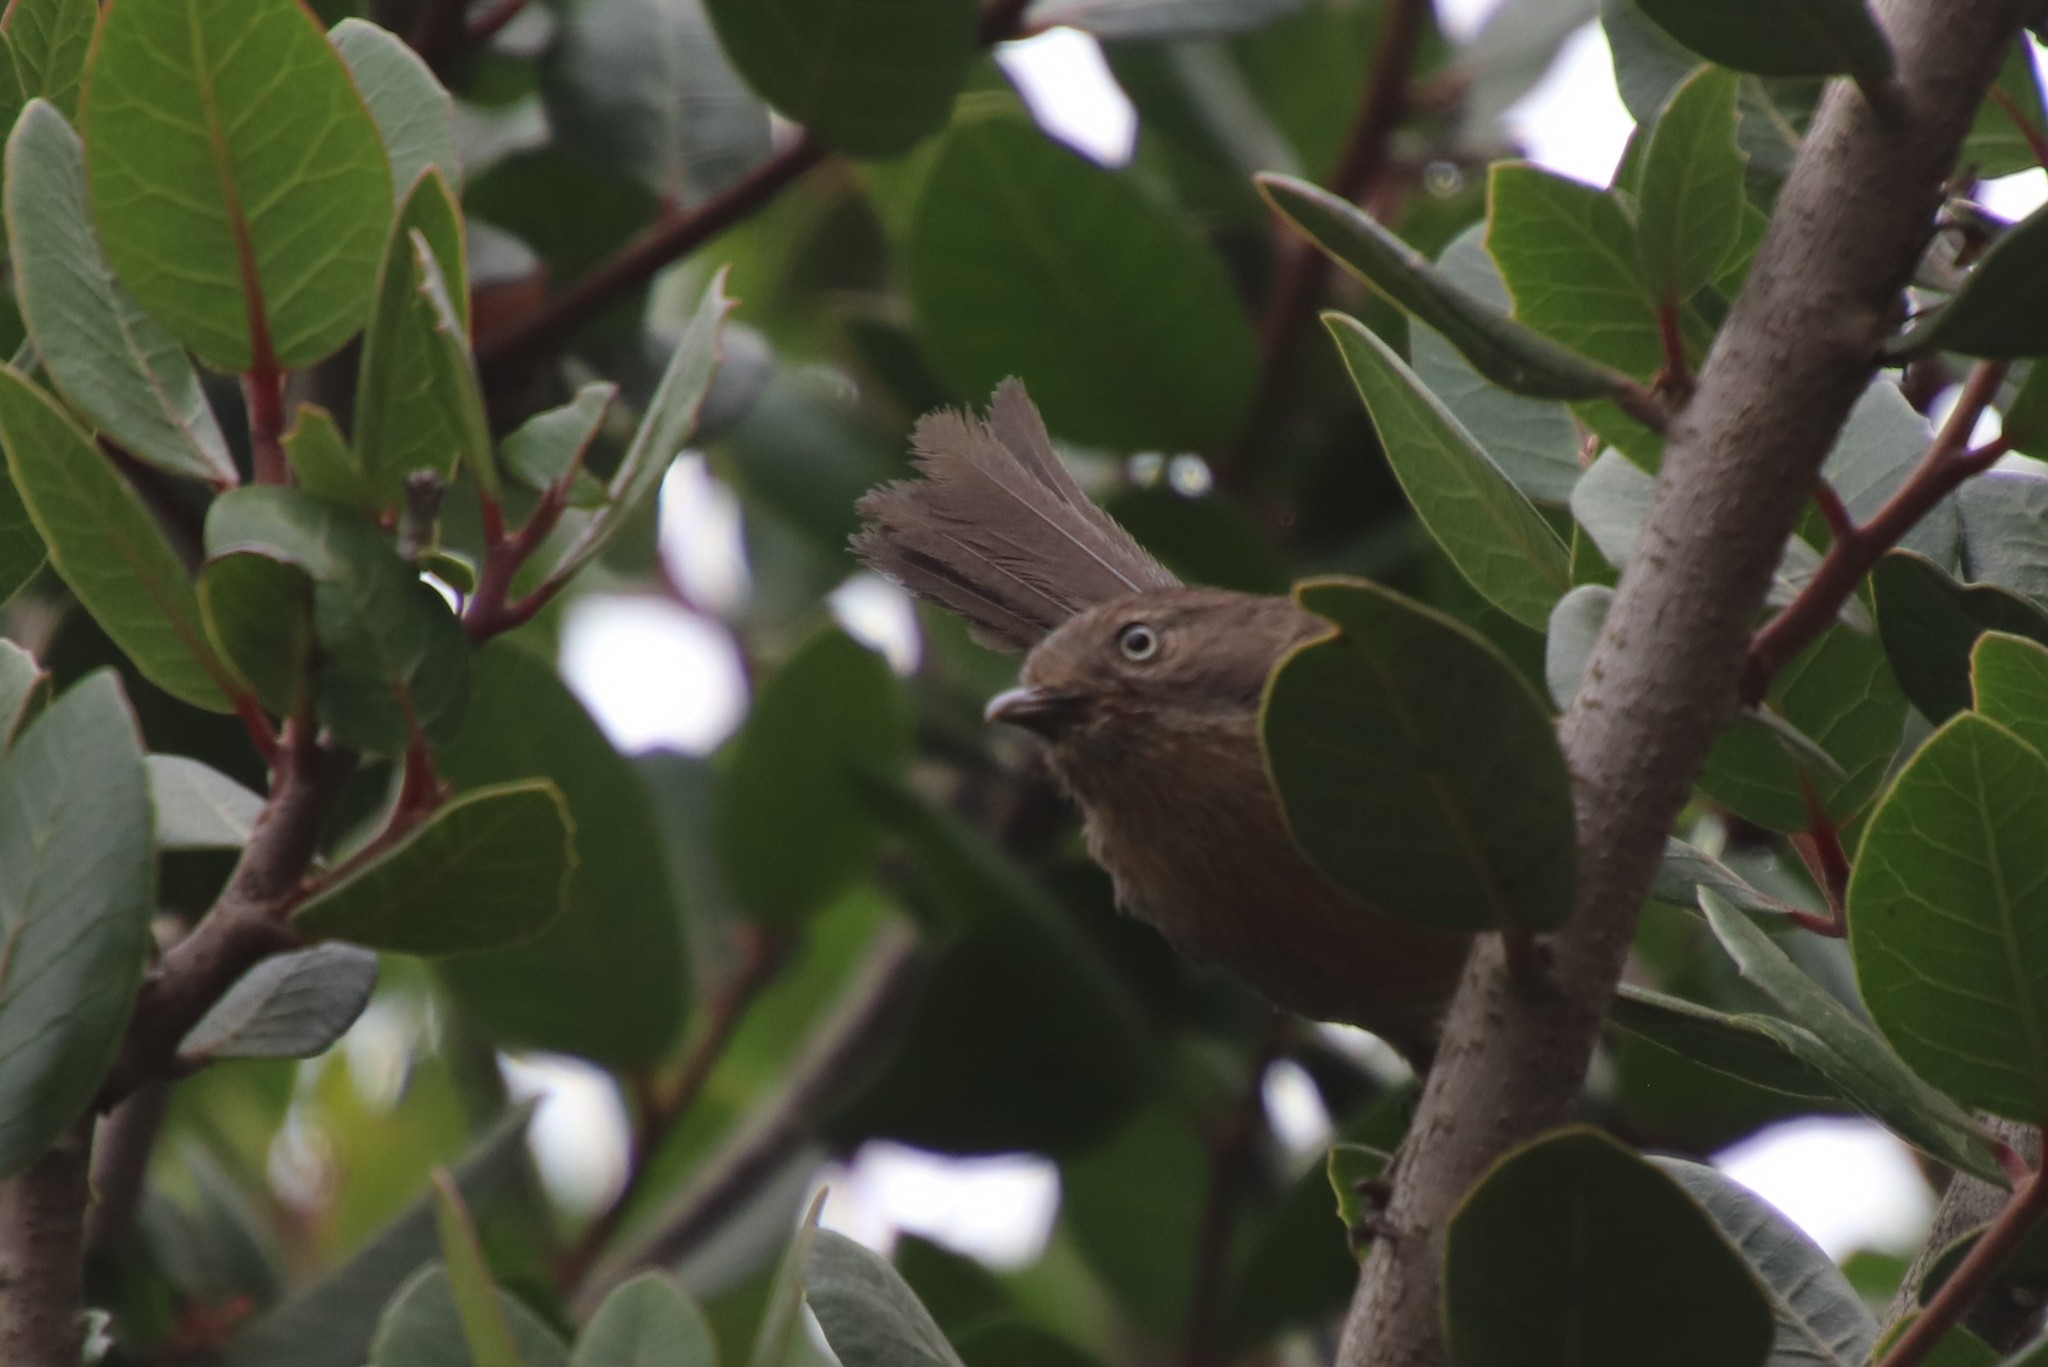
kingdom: Animalia
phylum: Chordata
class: Aves
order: Passeriformes
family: Sylviidae
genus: Chamaea
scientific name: Chamaea fasciata
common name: Wrentit
